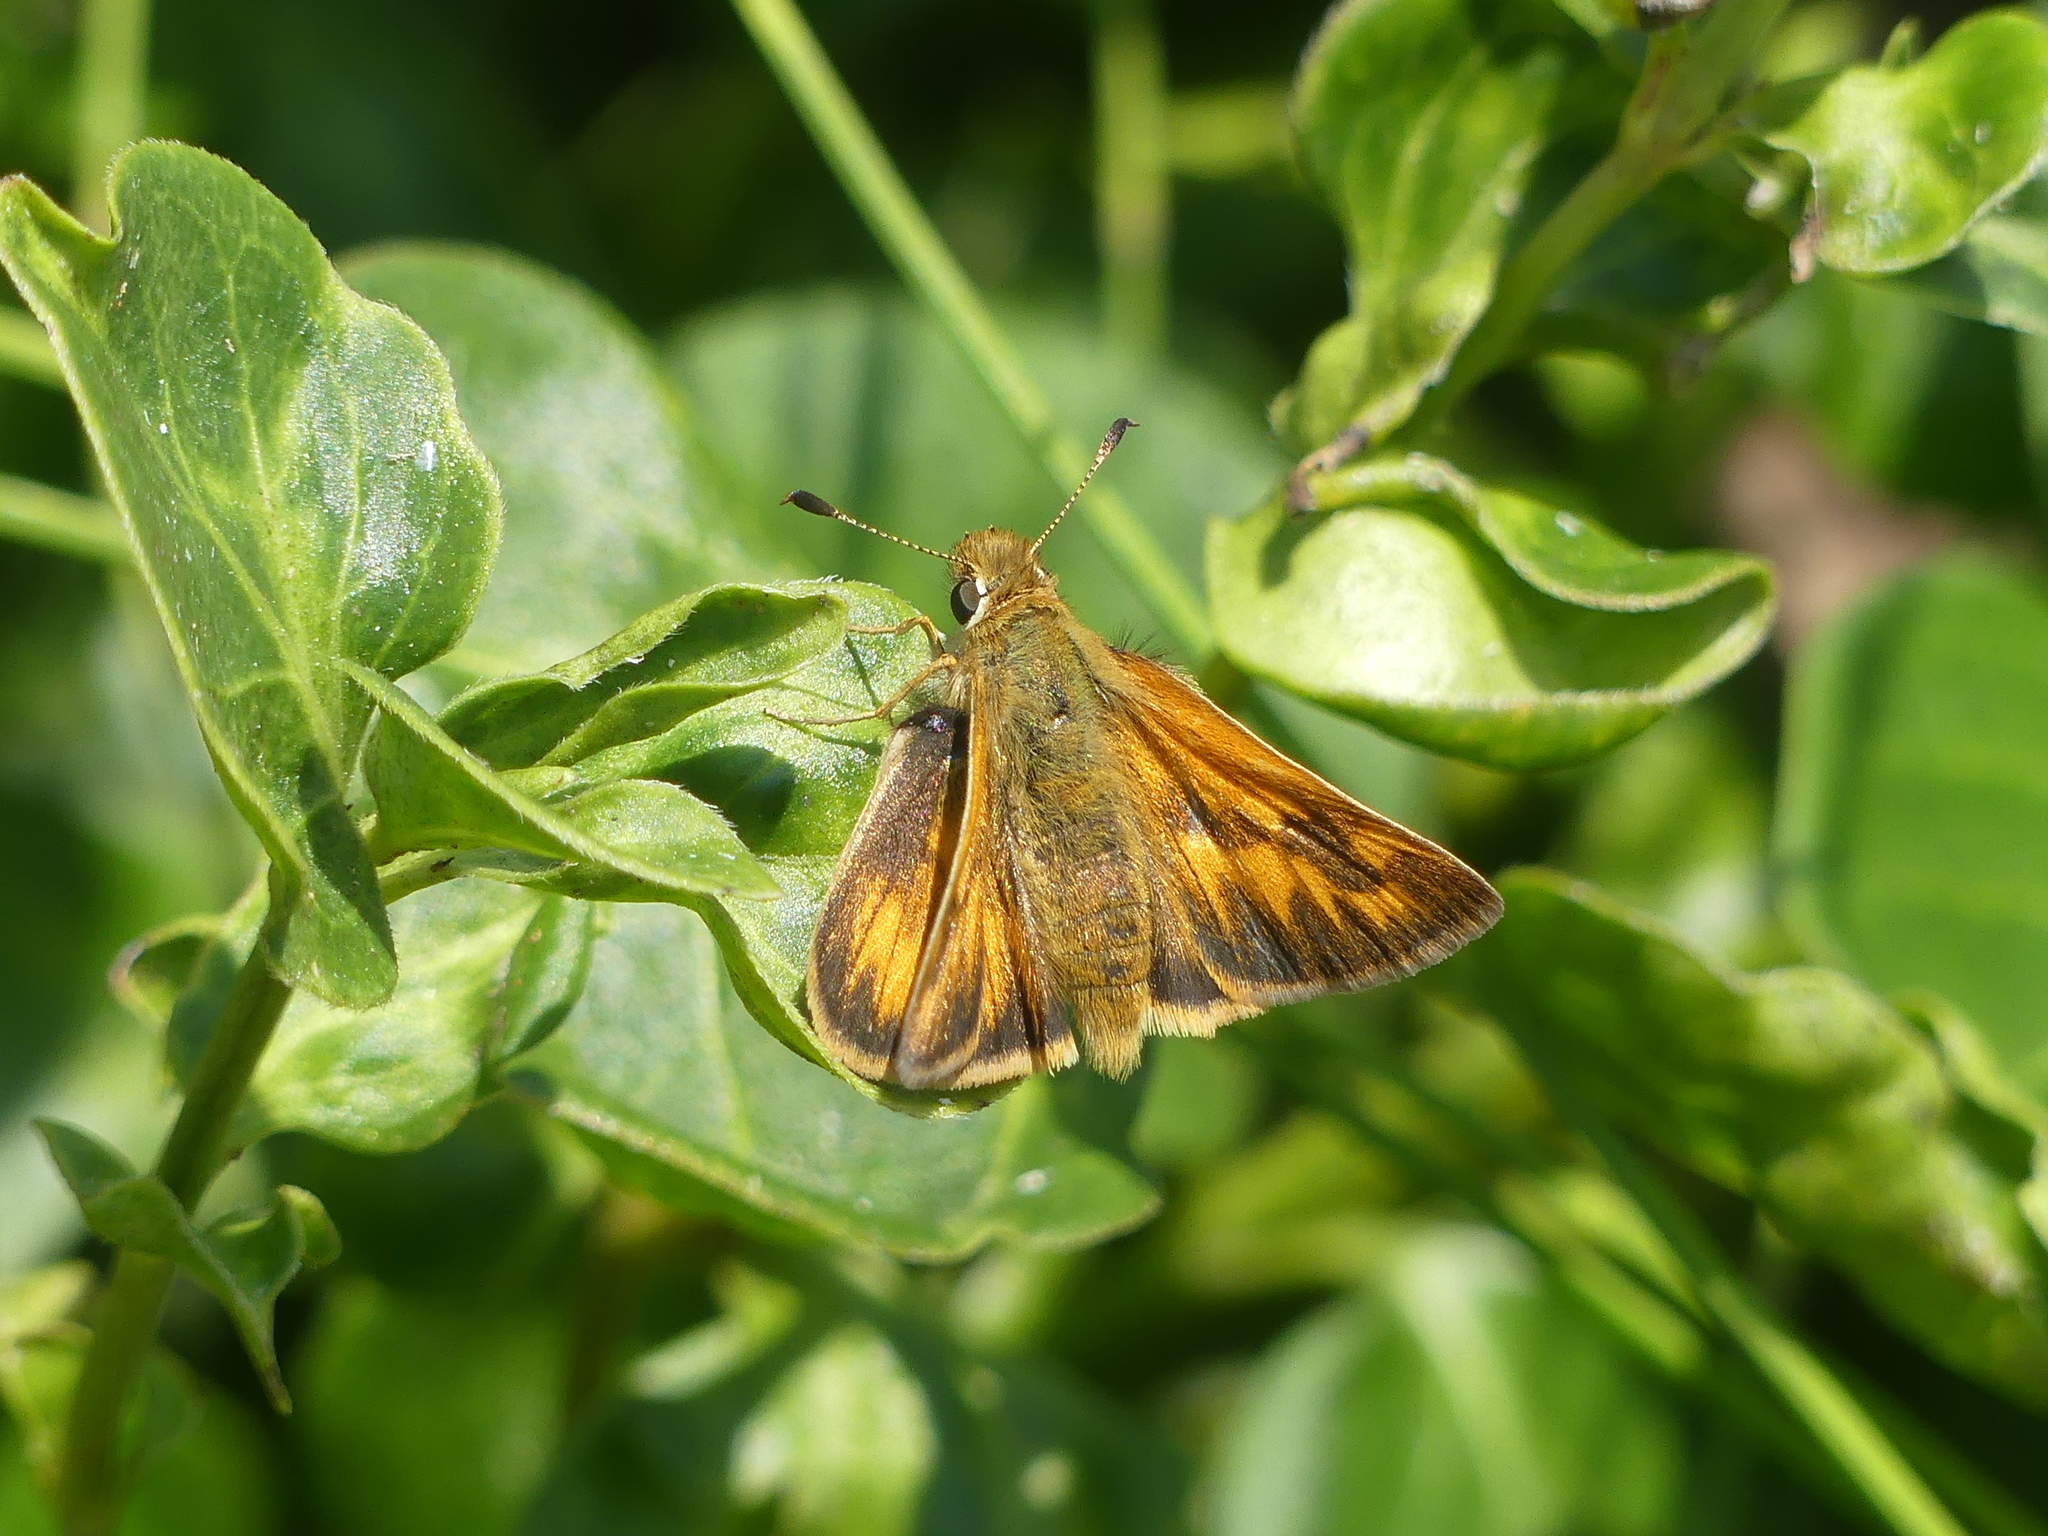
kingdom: Animalia
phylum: Arthropoda
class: Insecta
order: Lepidoptera
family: Hesperiidae
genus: Ochlodes
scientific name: Ochlodes sylvanoides
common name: Woodland skipper
